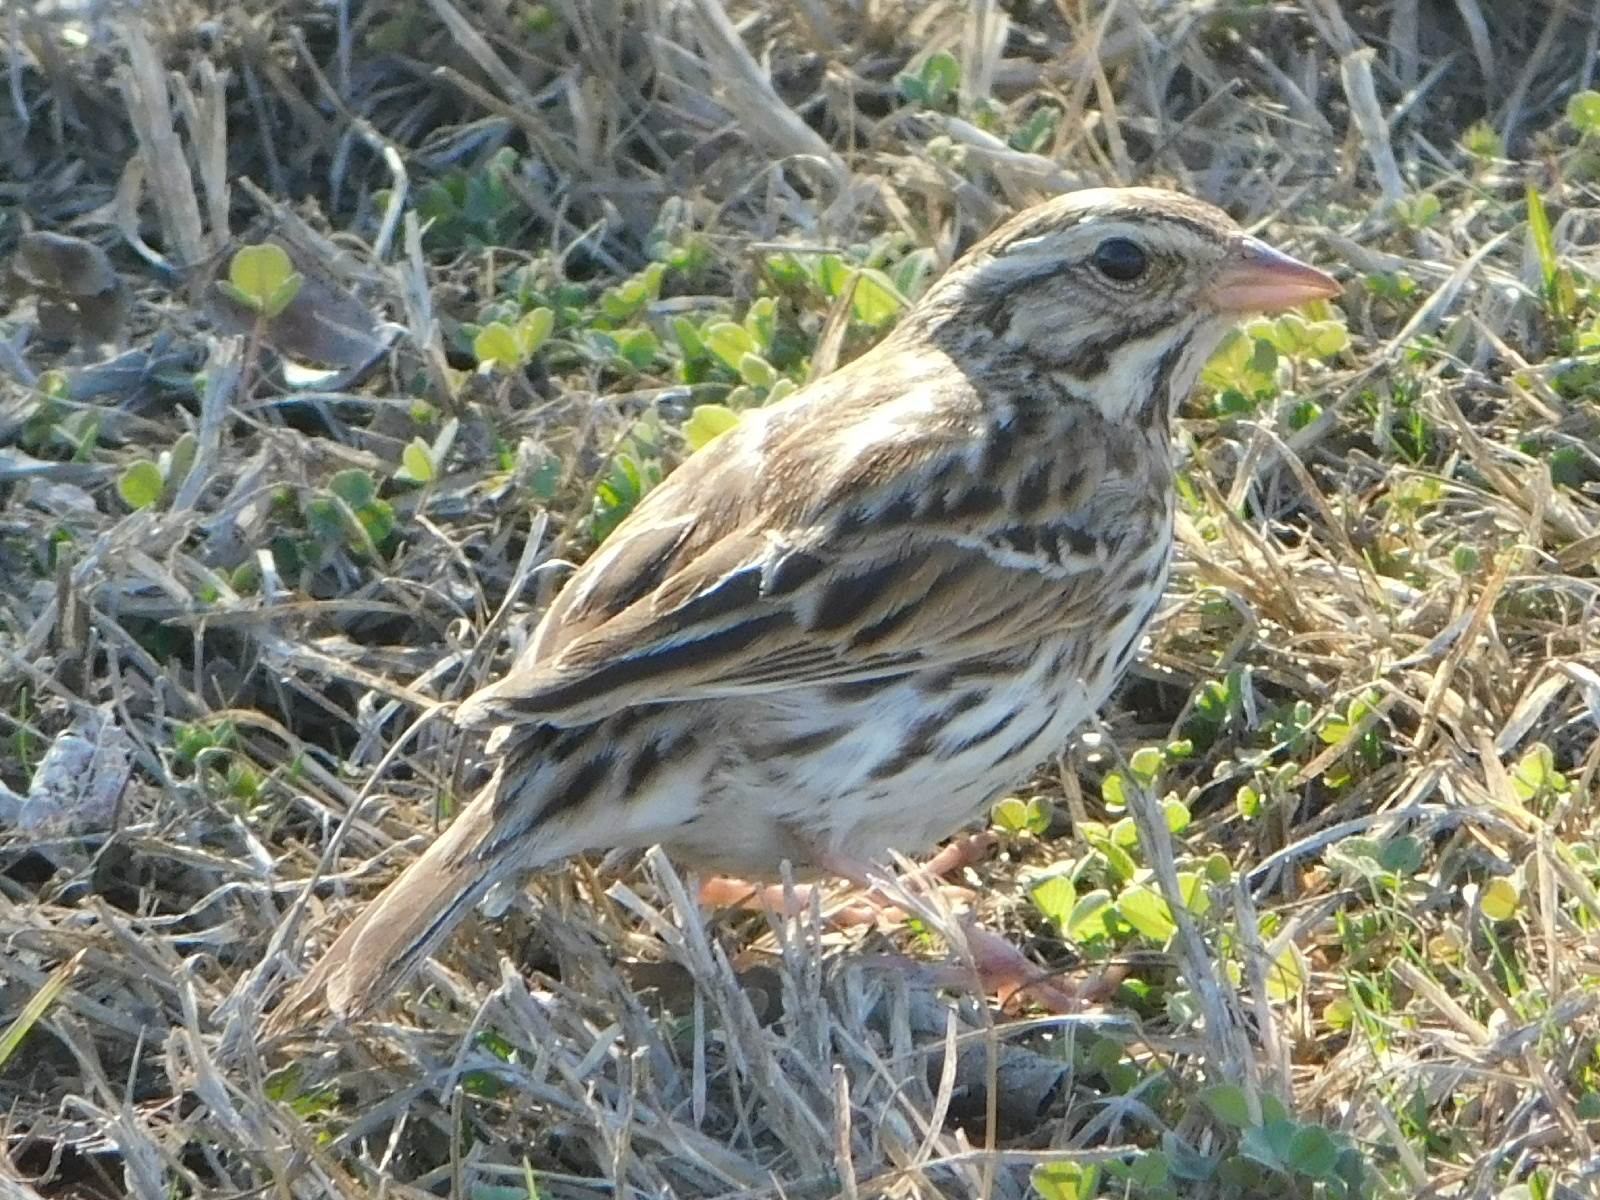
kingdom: Animalia
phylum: Chordata
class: Aves
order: Passeriformes
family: Passerellidae
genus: Passerculus
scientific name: Passerculus sandwichensis
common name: Savannah sparrow
